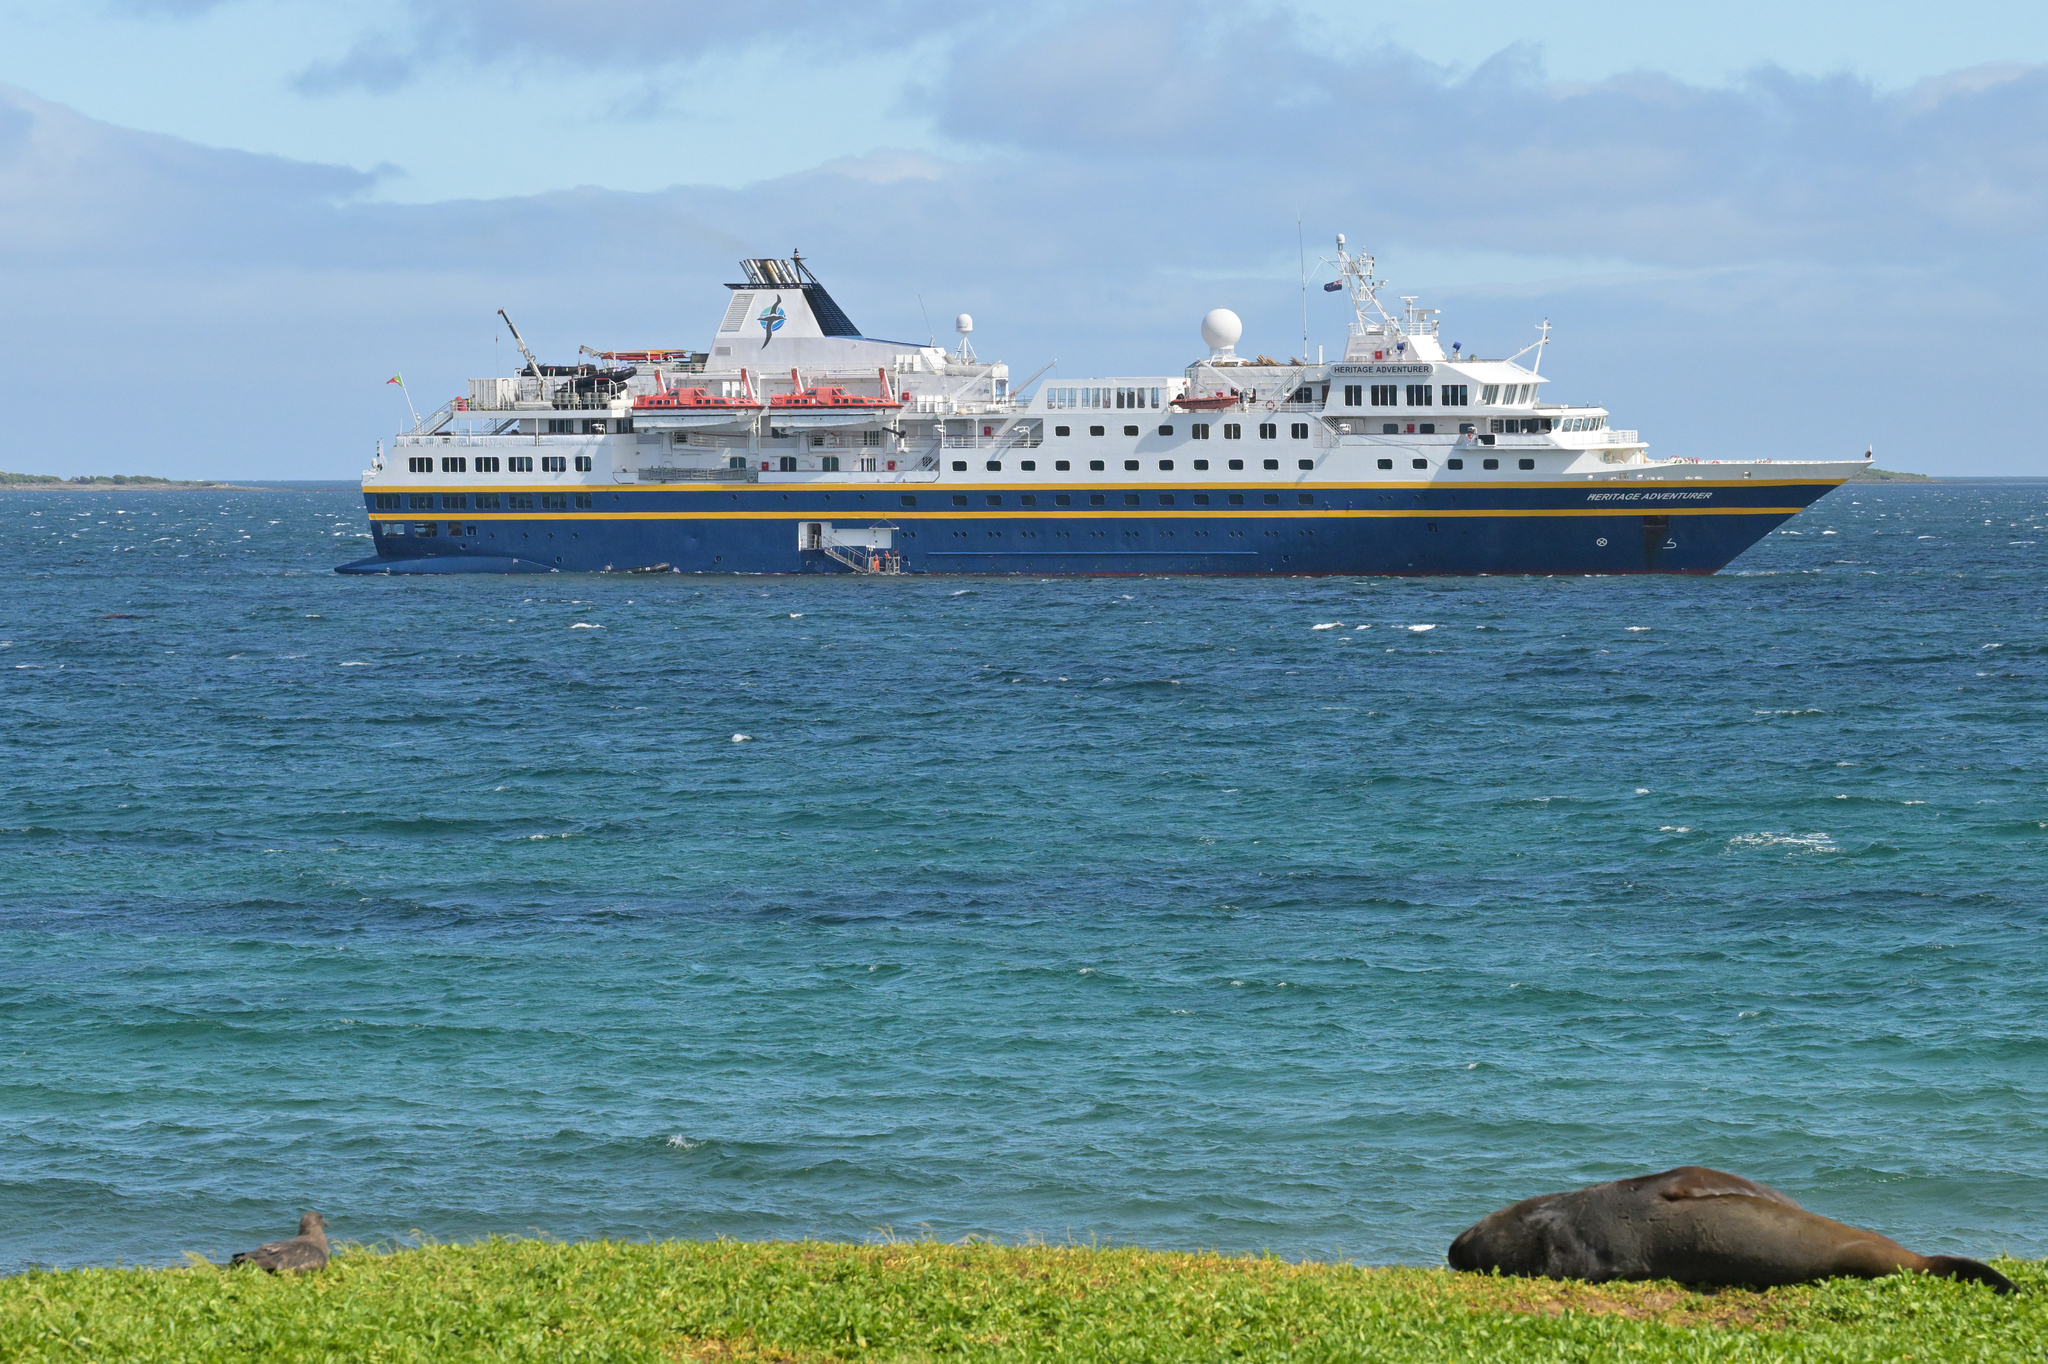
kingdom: Animalia
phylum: Chordata
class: Mammalia
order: Carnivora
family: Otariidae
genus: Phocarctos
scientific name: Phocarctos hookeri
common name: New zealand sea lion
